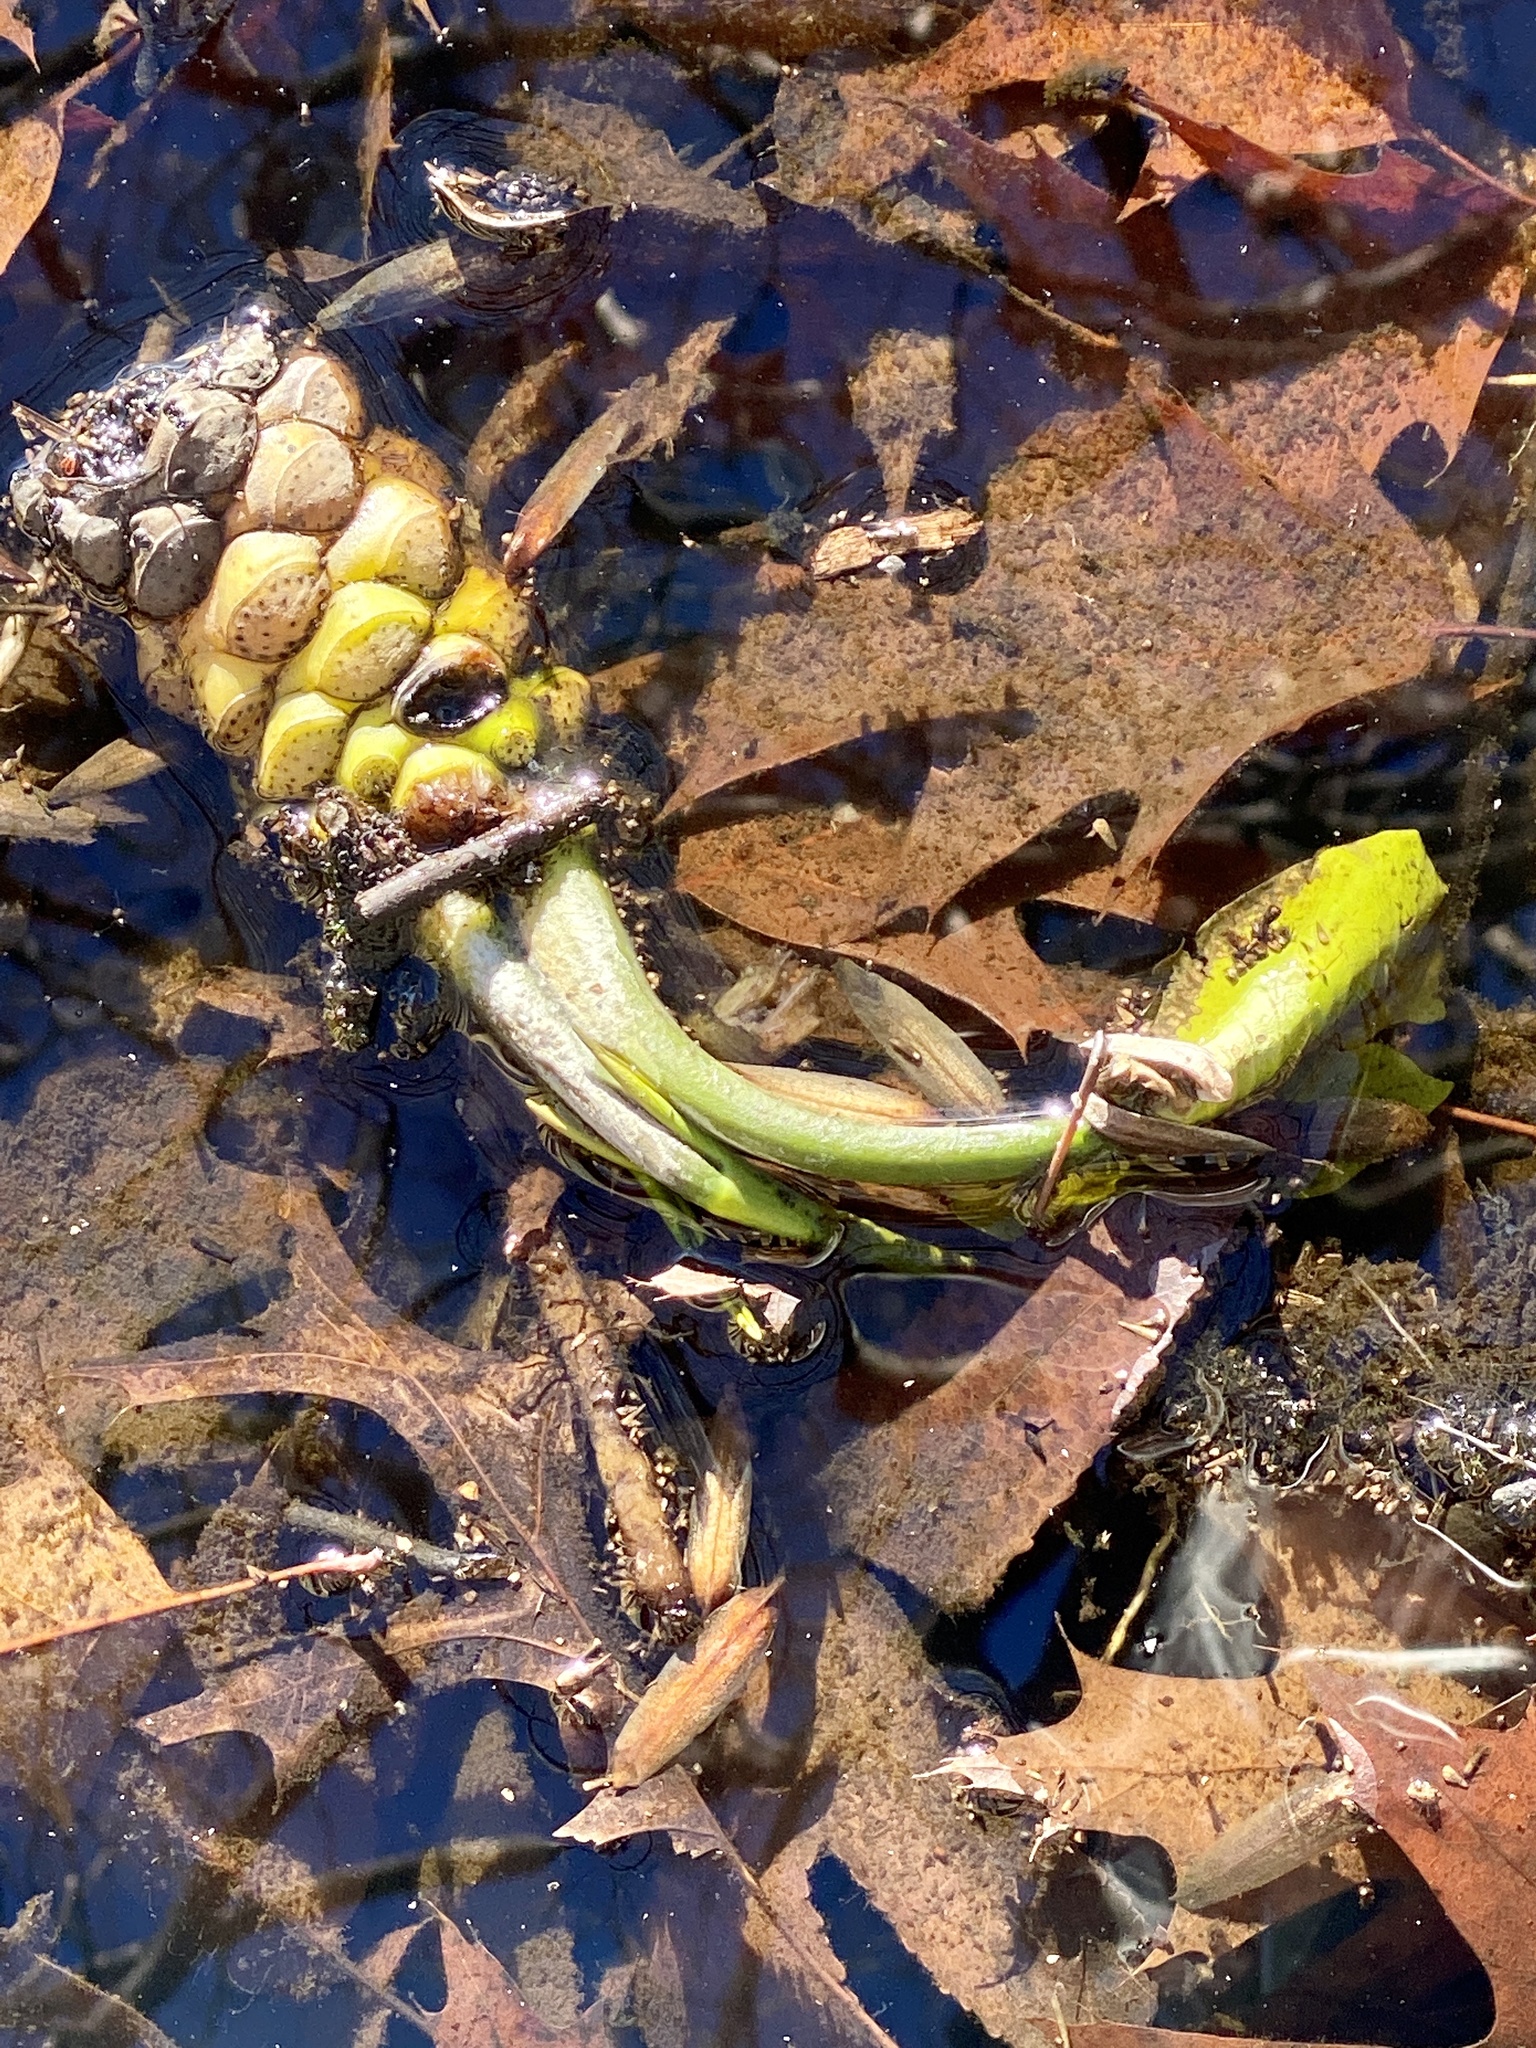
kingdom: Plantae
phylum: Tracheophyta
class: Magnoliopsida
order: Nymphaeales
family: Nymphaeaceae
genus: Nuphar
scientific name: Nuphar advena
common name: Spatter-dock
